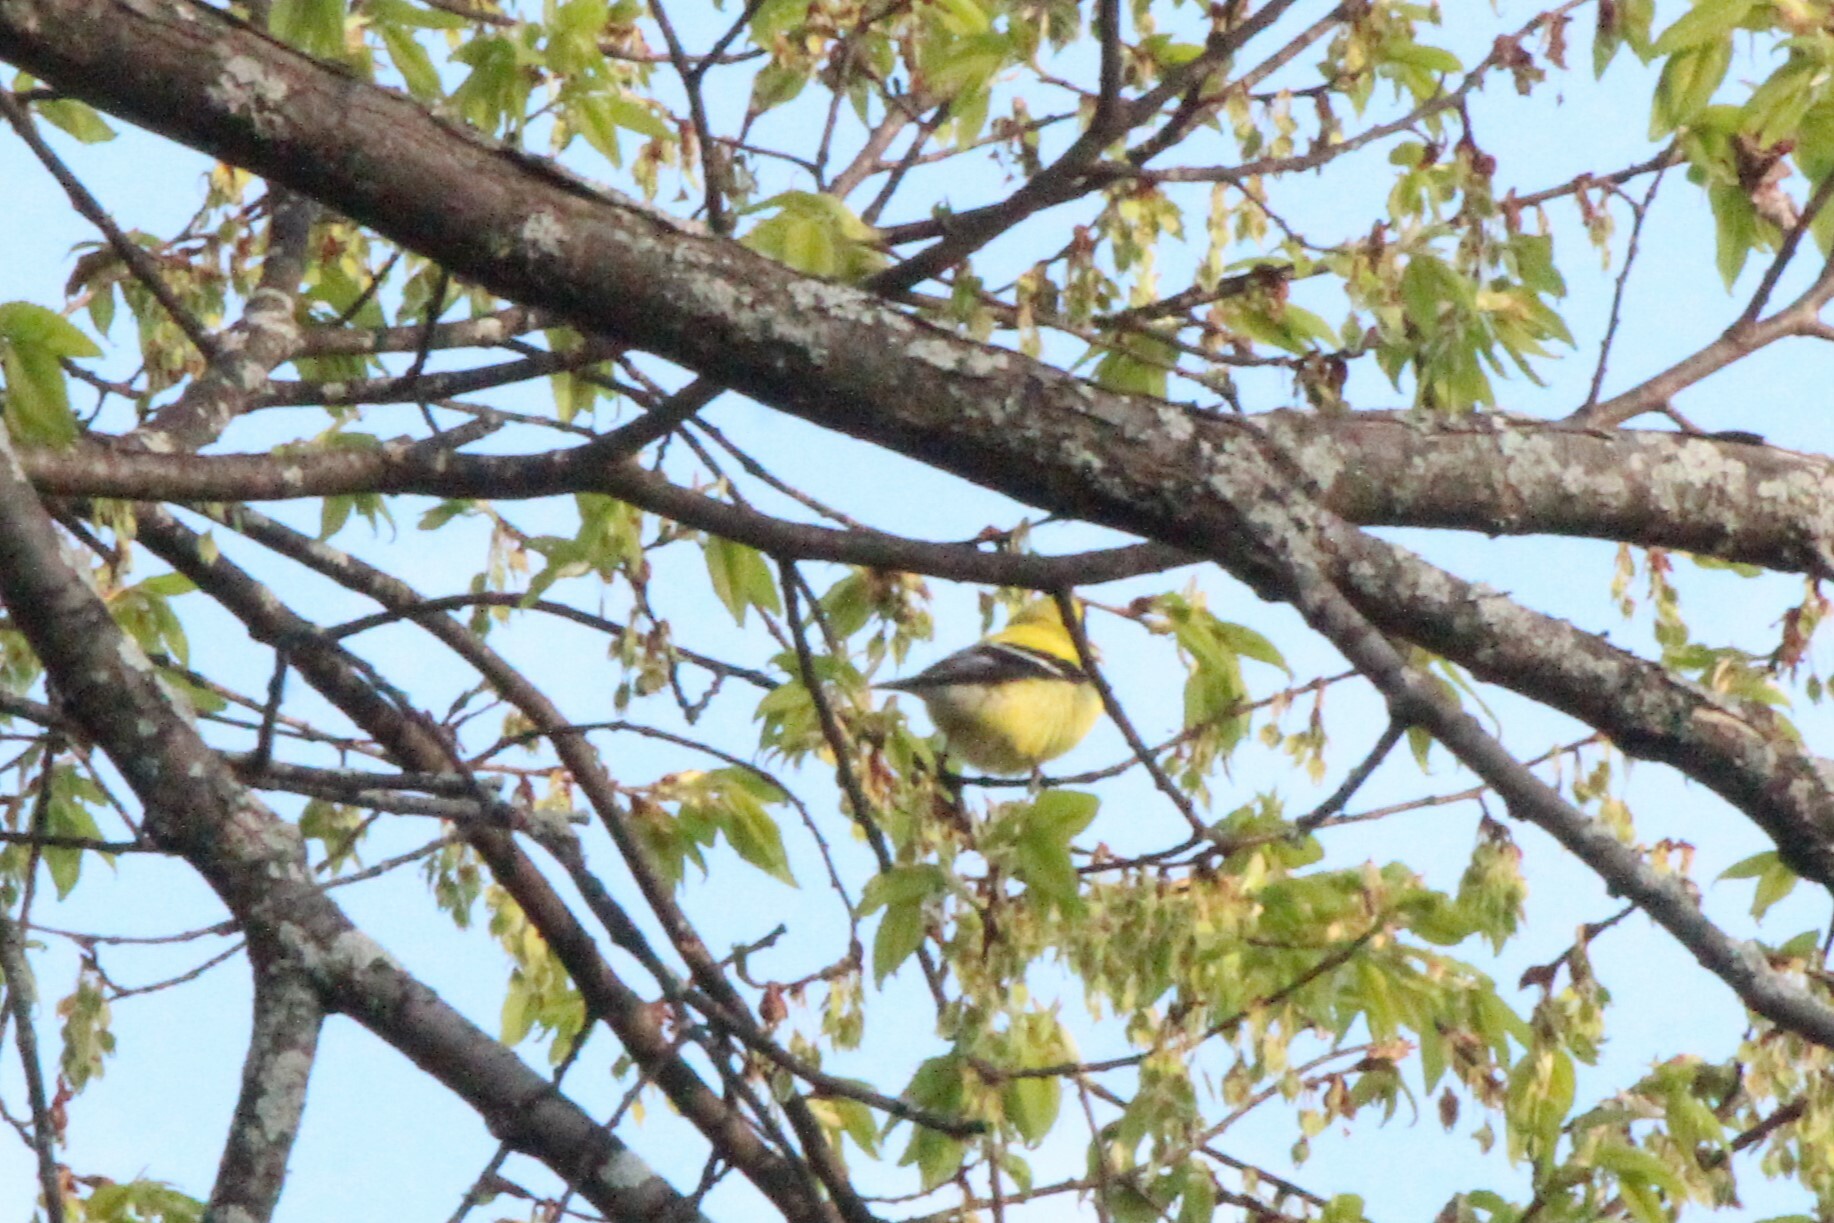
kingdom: Animalia
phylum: Chordata
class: Aves
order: Passeriformes
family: Fringillidae
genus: Spinus
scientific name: Spinus tristis
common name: American goldfinch
